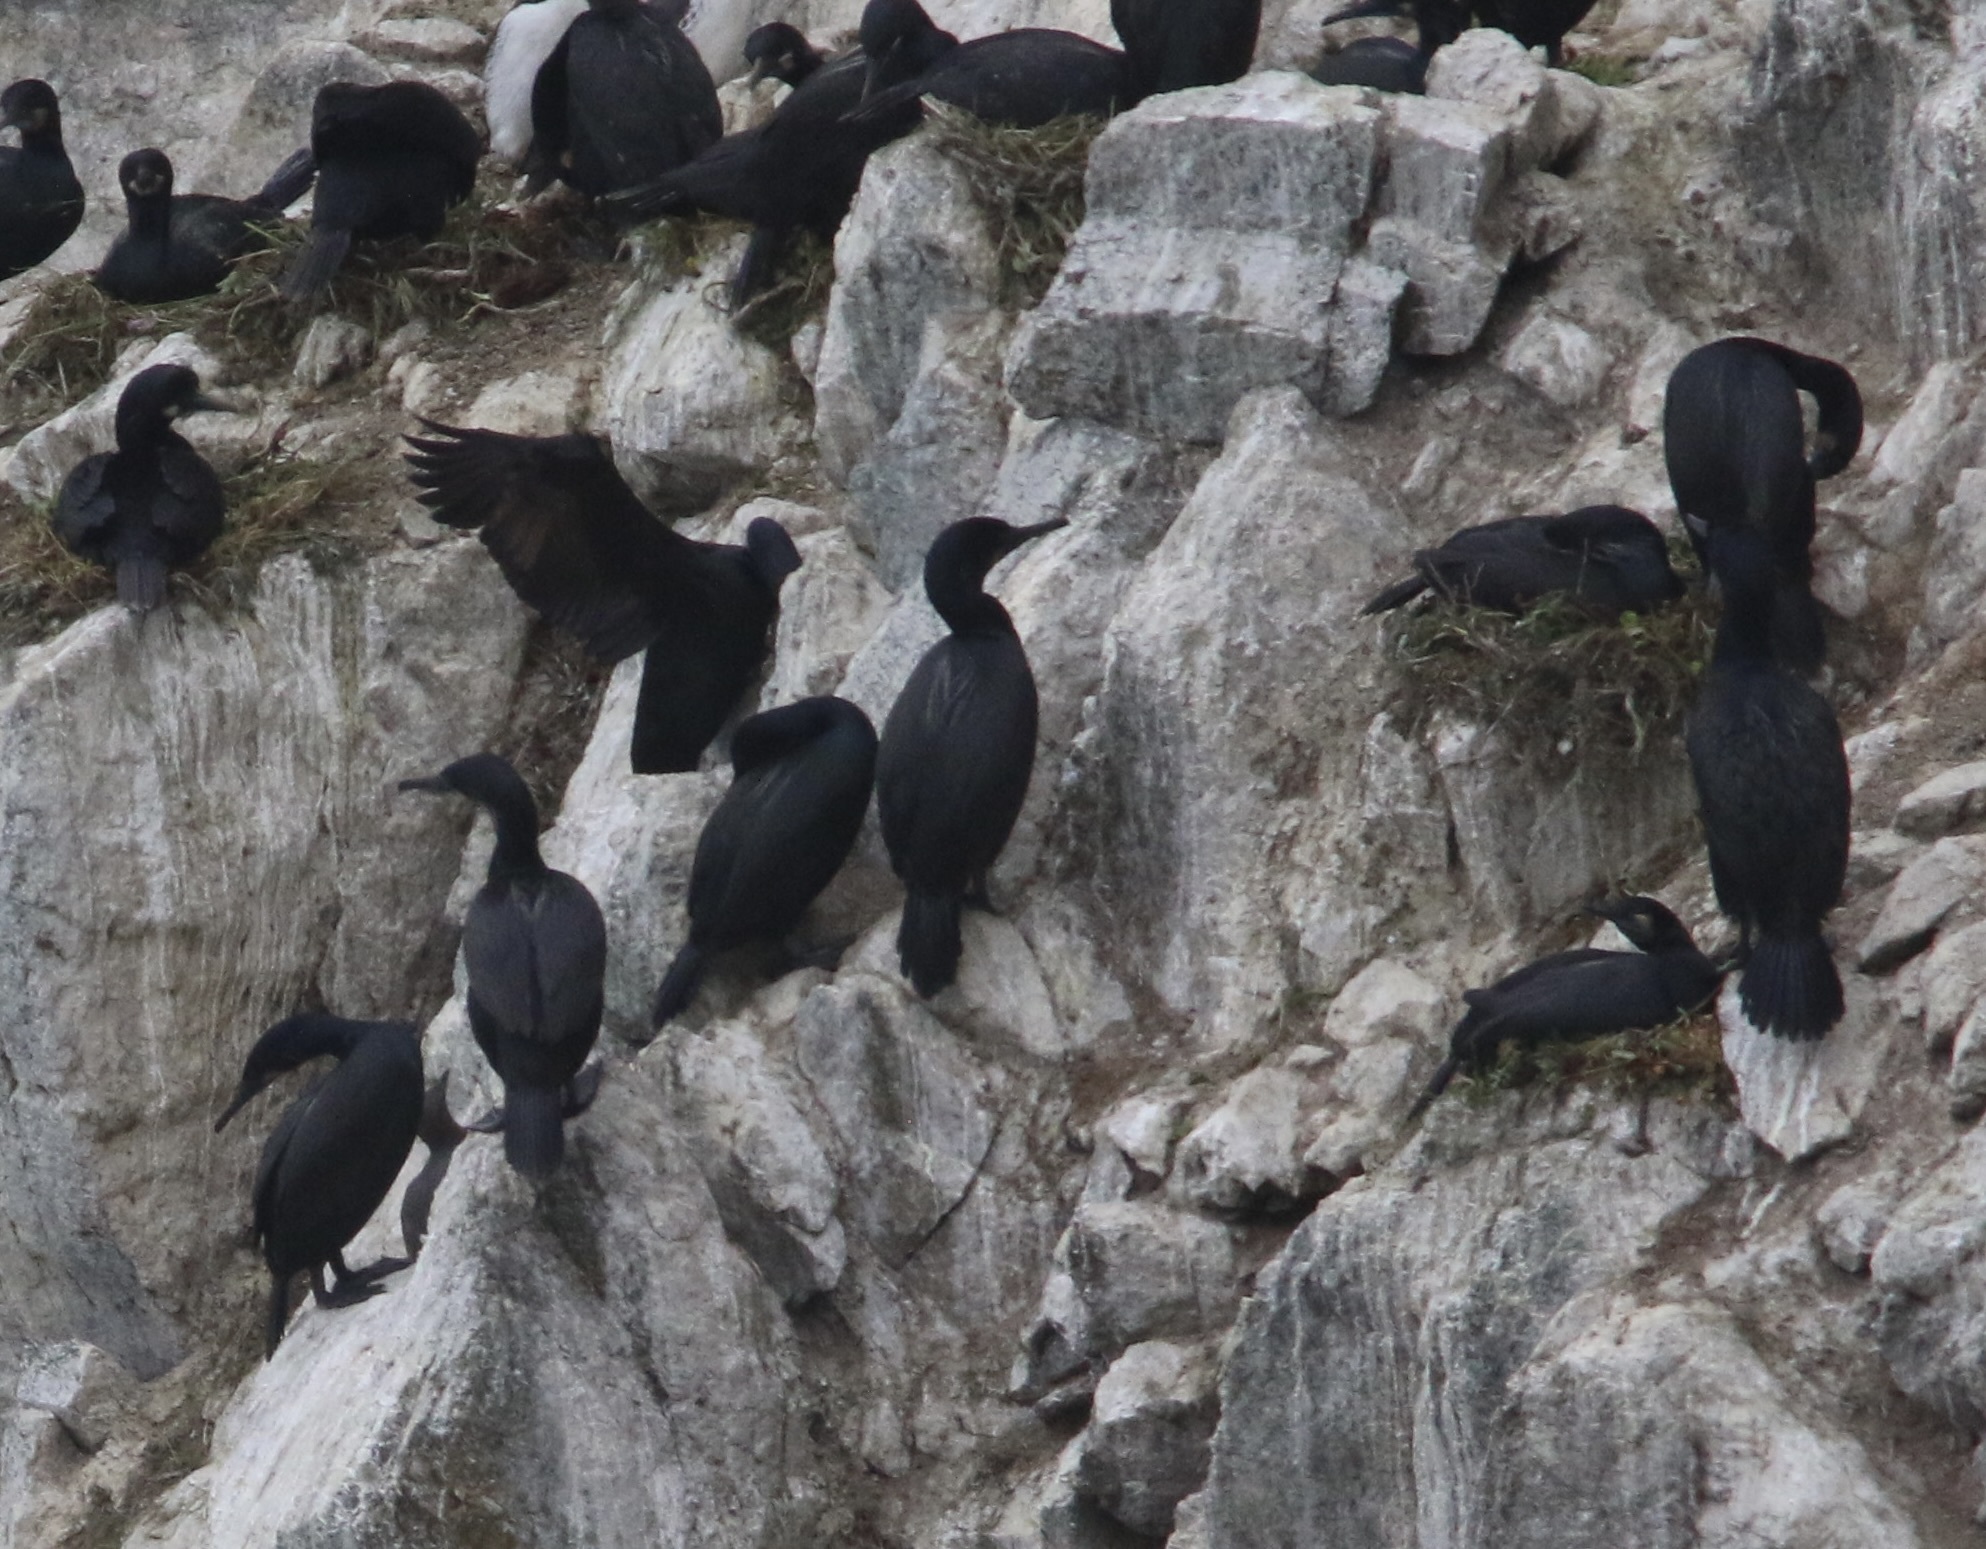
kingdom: Animalia
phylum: Chordata
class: Aves
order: Suliformes
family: Phalacrocoracidae
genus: Urile
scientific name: Urile penicillatus
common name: Brandt's cormorant
